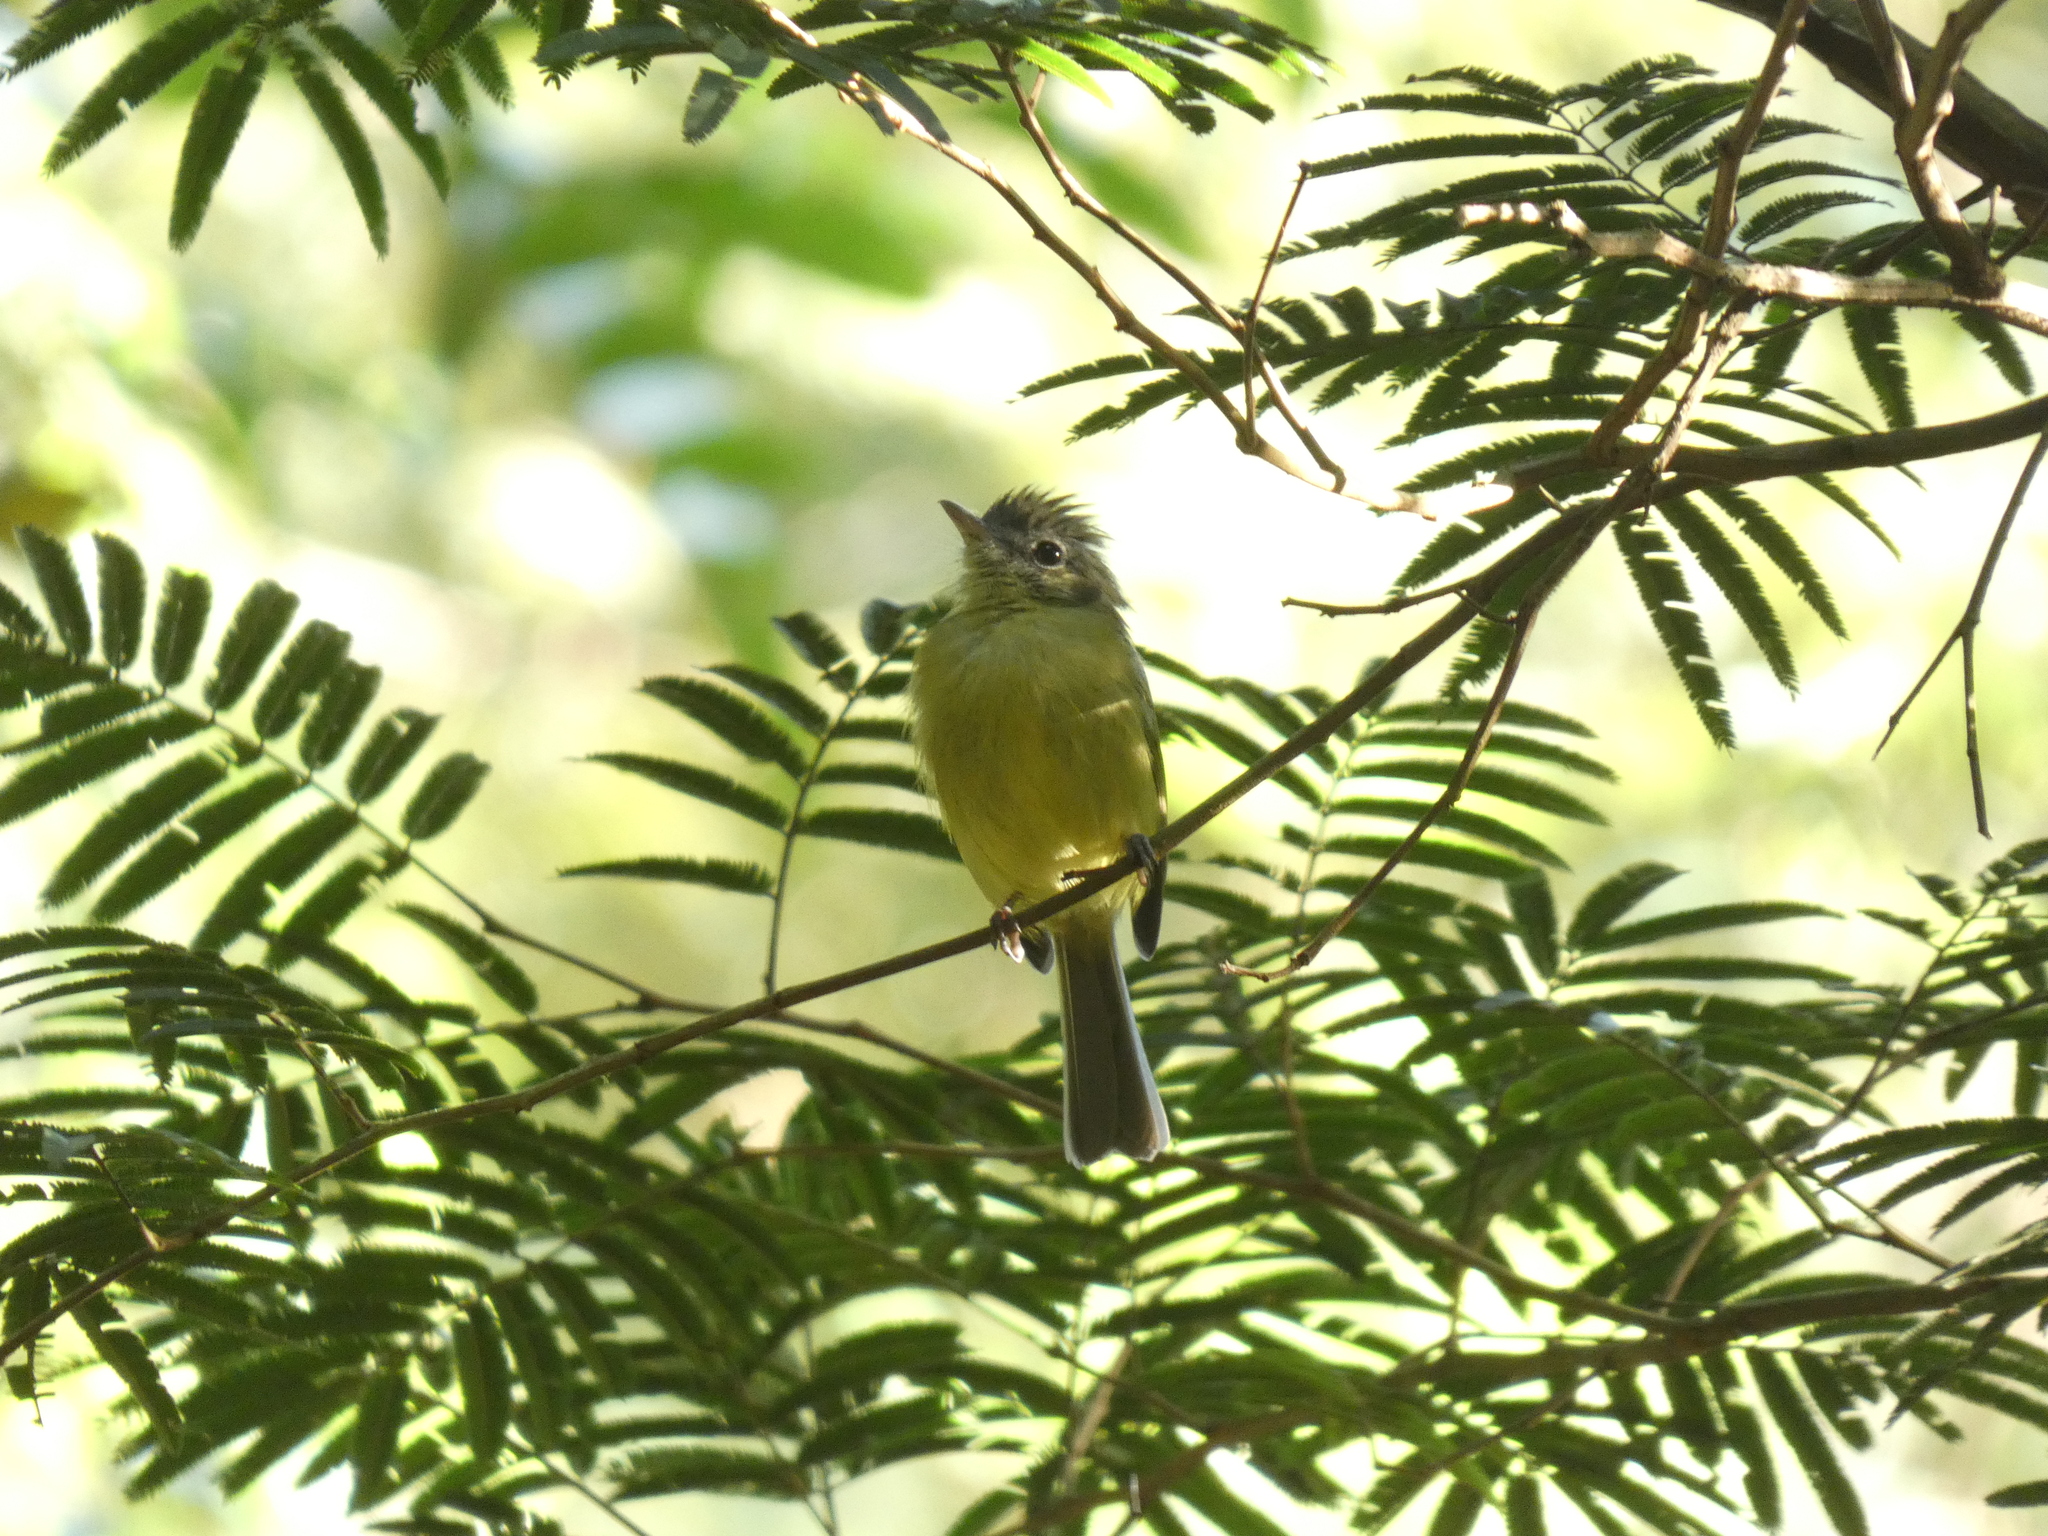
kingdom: Animalia
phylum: Chordata
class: Aves
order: Passeriformes
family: Tyrannidae
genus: Tolmomyias
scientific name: Tolmomyias sulphurescens
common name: Yellow-olive flycatcher
